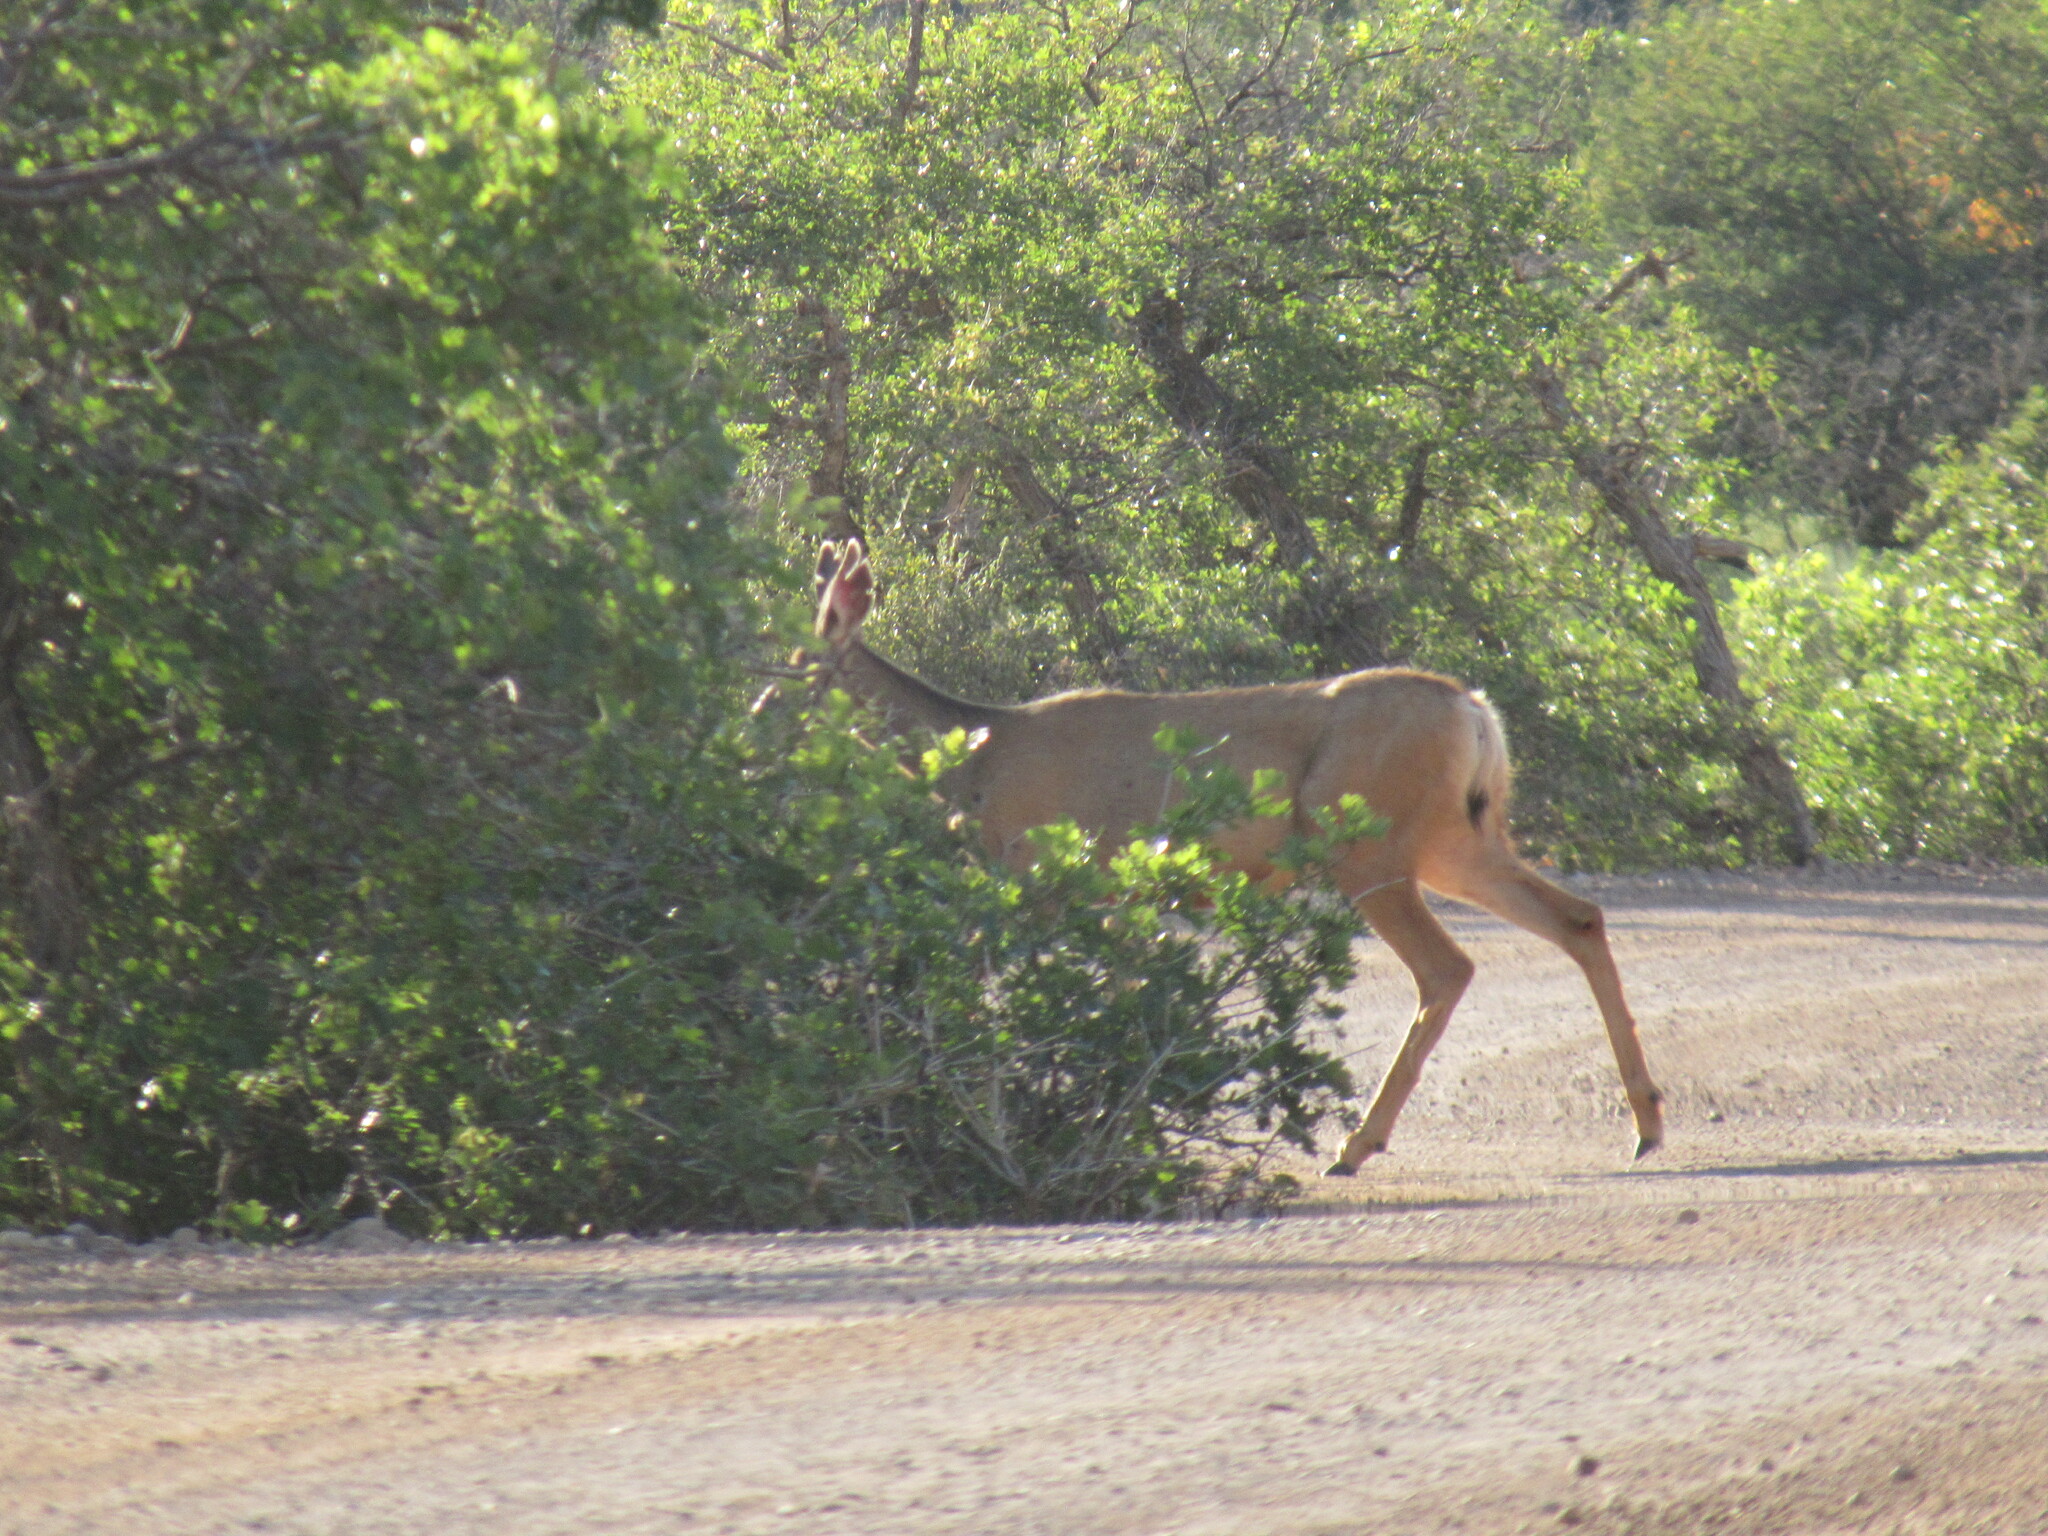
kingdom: Animalia
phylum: Chordata
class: Mammalia
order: Artiodactyla
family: Cervidae
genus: Odocoileus
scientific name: Odocoileus hemionus
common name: Mule deer
